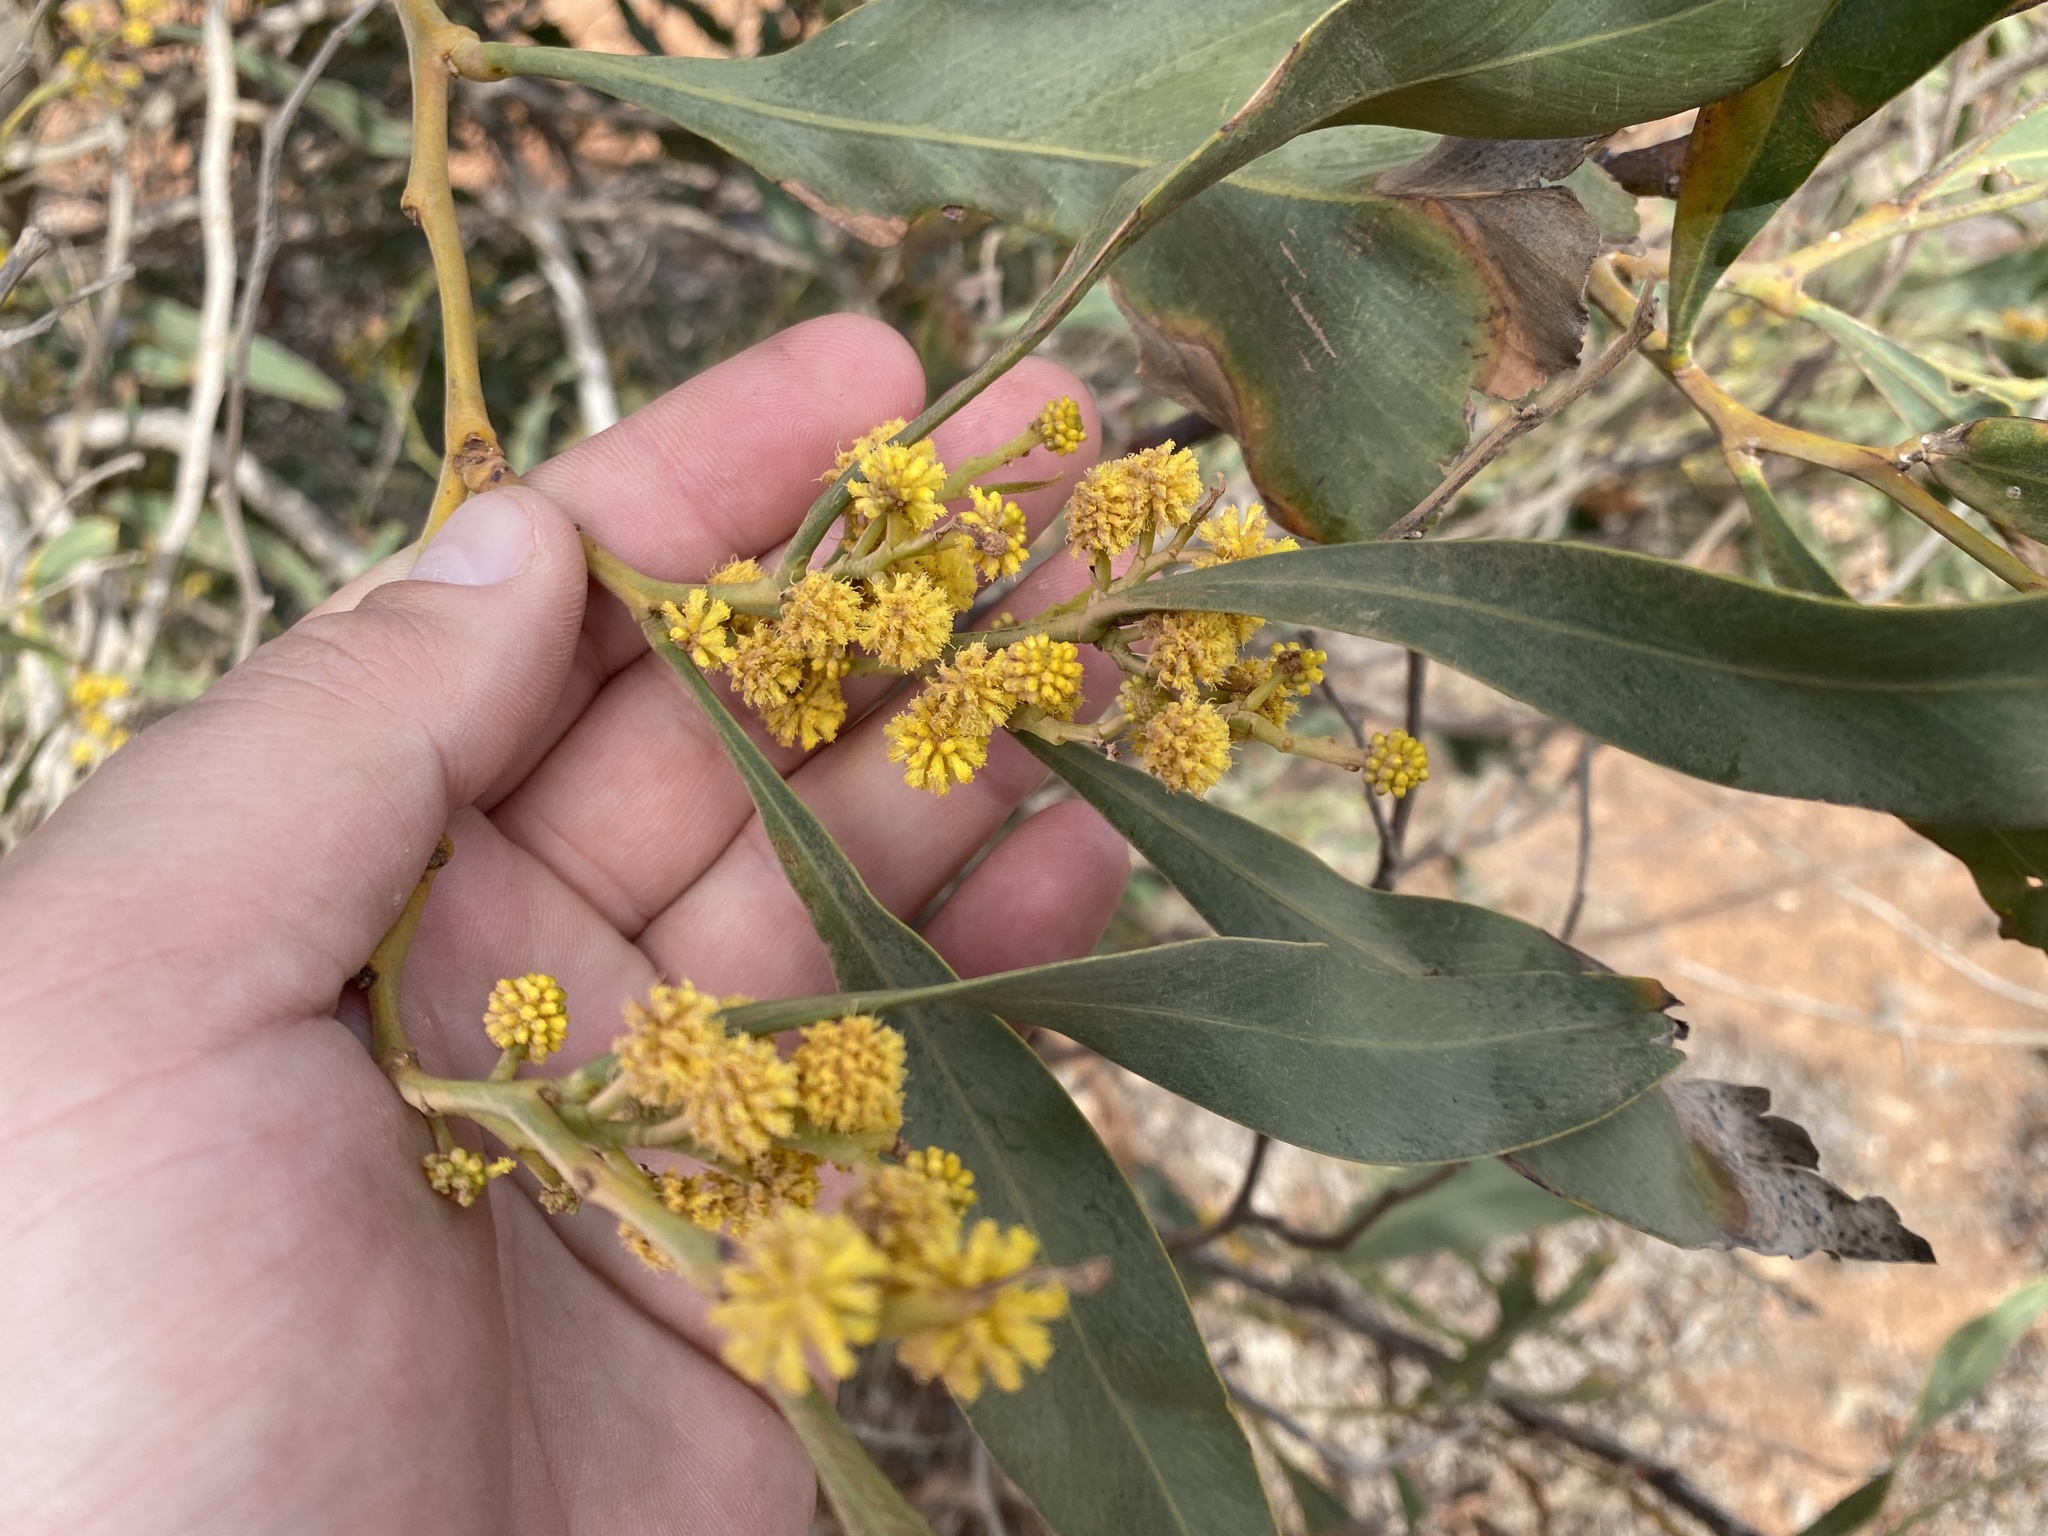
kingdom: Plantae
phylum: Tracheophyta
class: Magnoliopsida
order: Fabales
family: Fabaceae
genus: Acacia
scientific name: Acacia saligna
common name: Orange wattle
